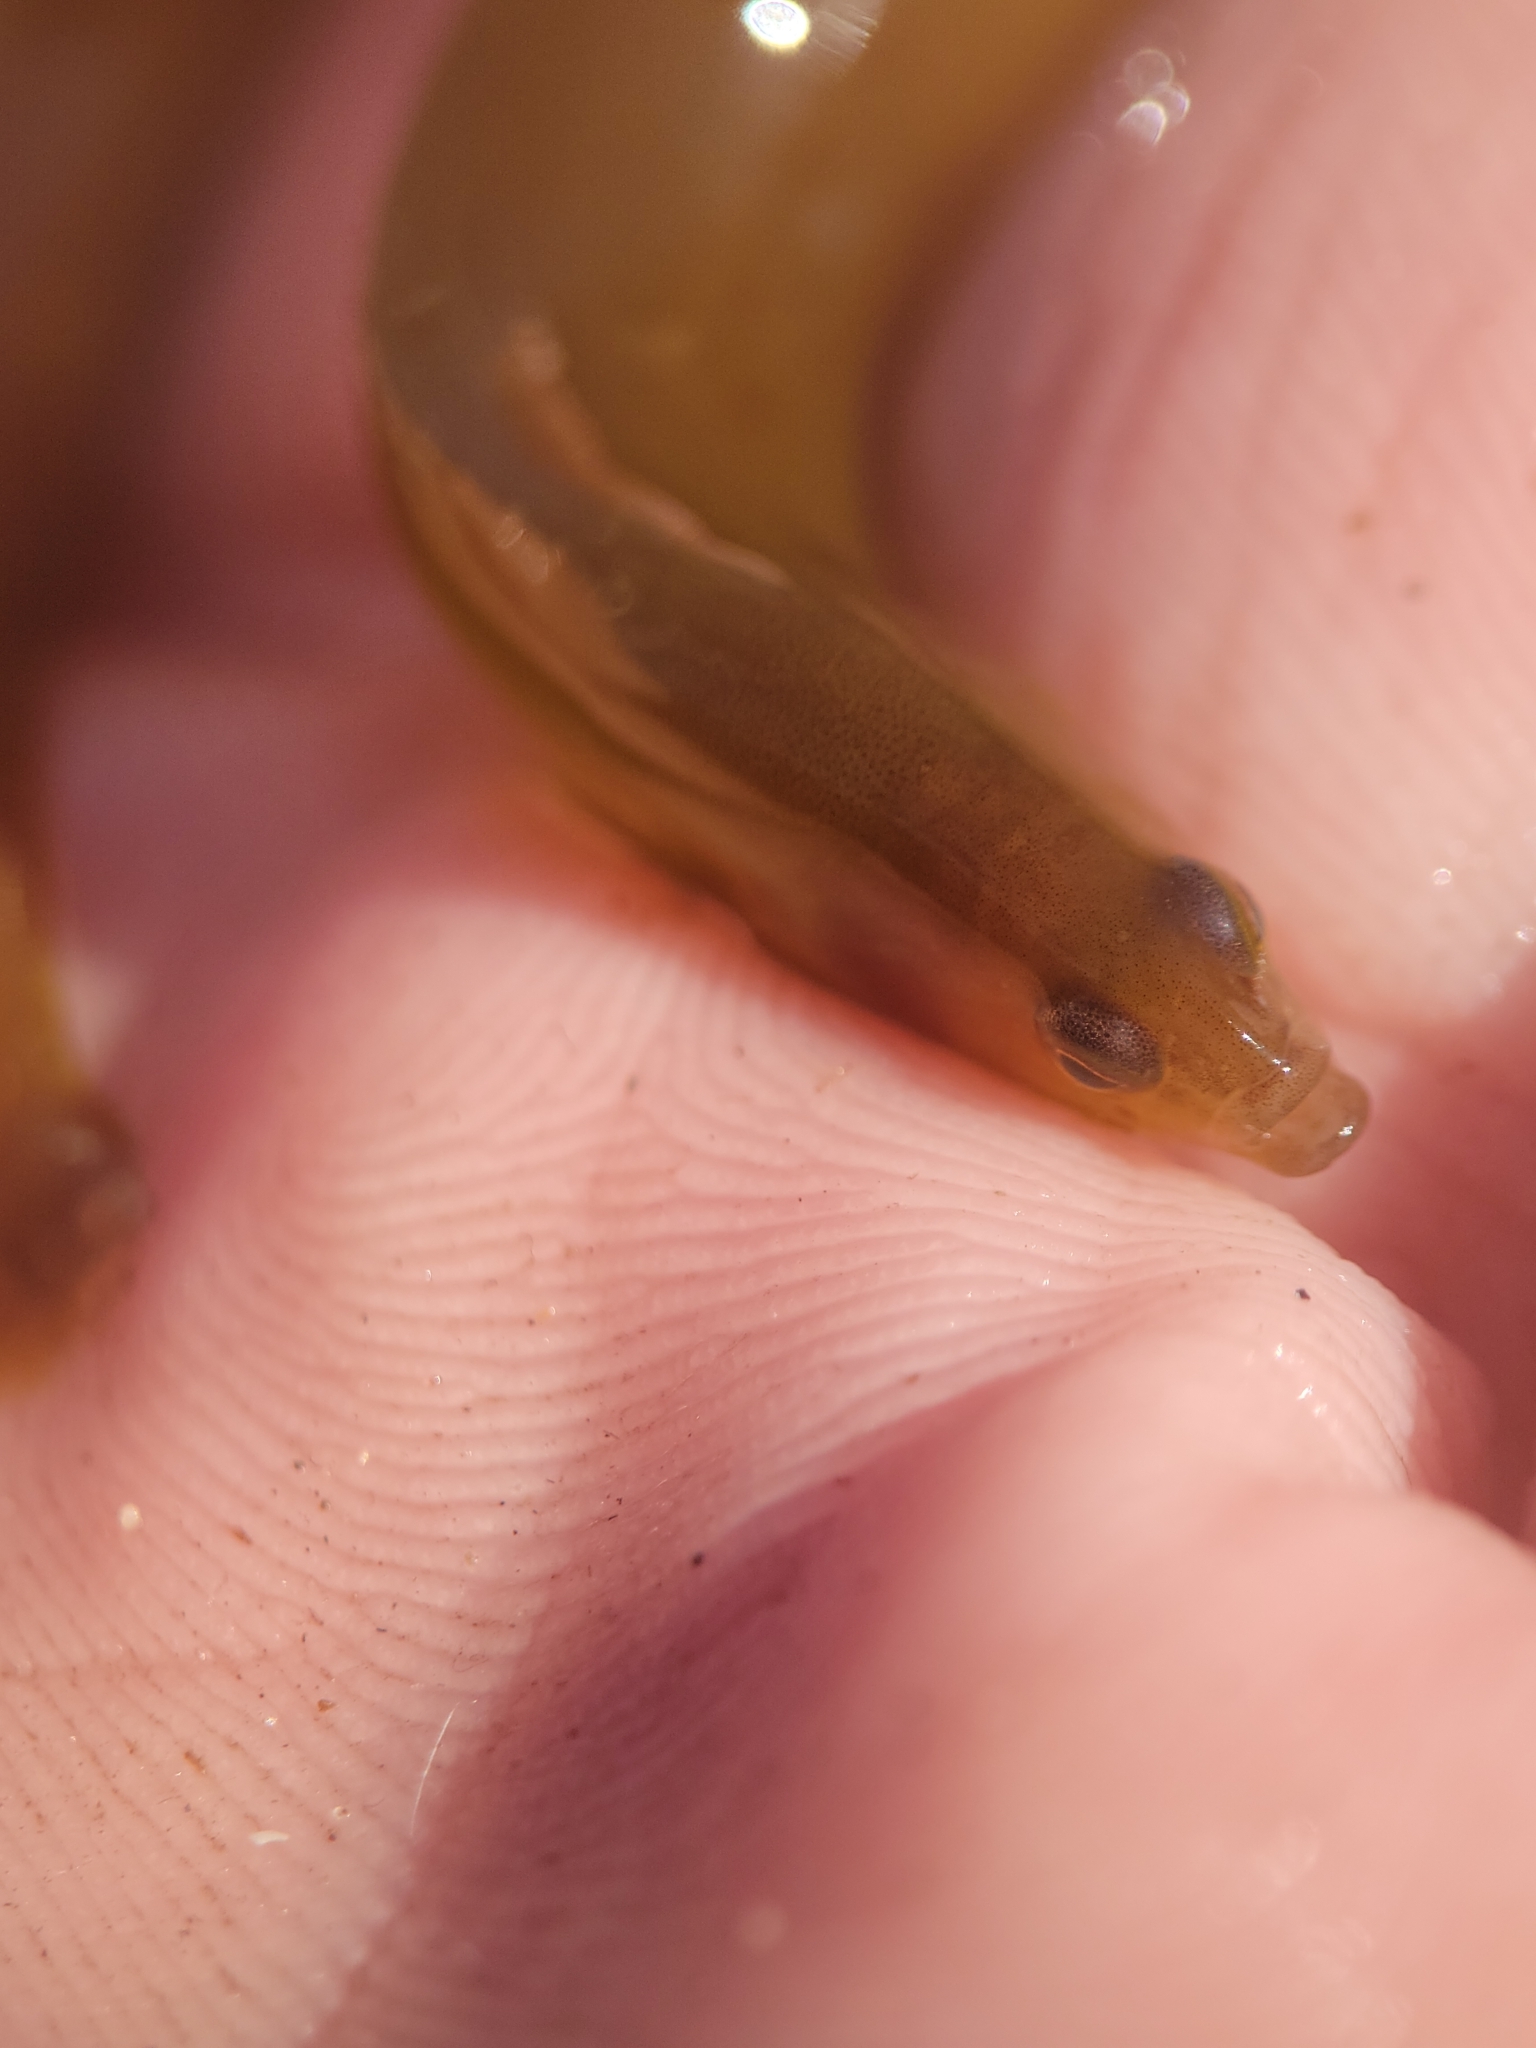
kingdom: Animalia
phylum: Chordata
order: Perciformes
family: Pholidae
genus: Ulvicola
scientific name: Ulvicola sanctaerosae
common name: Kelp gunnel
